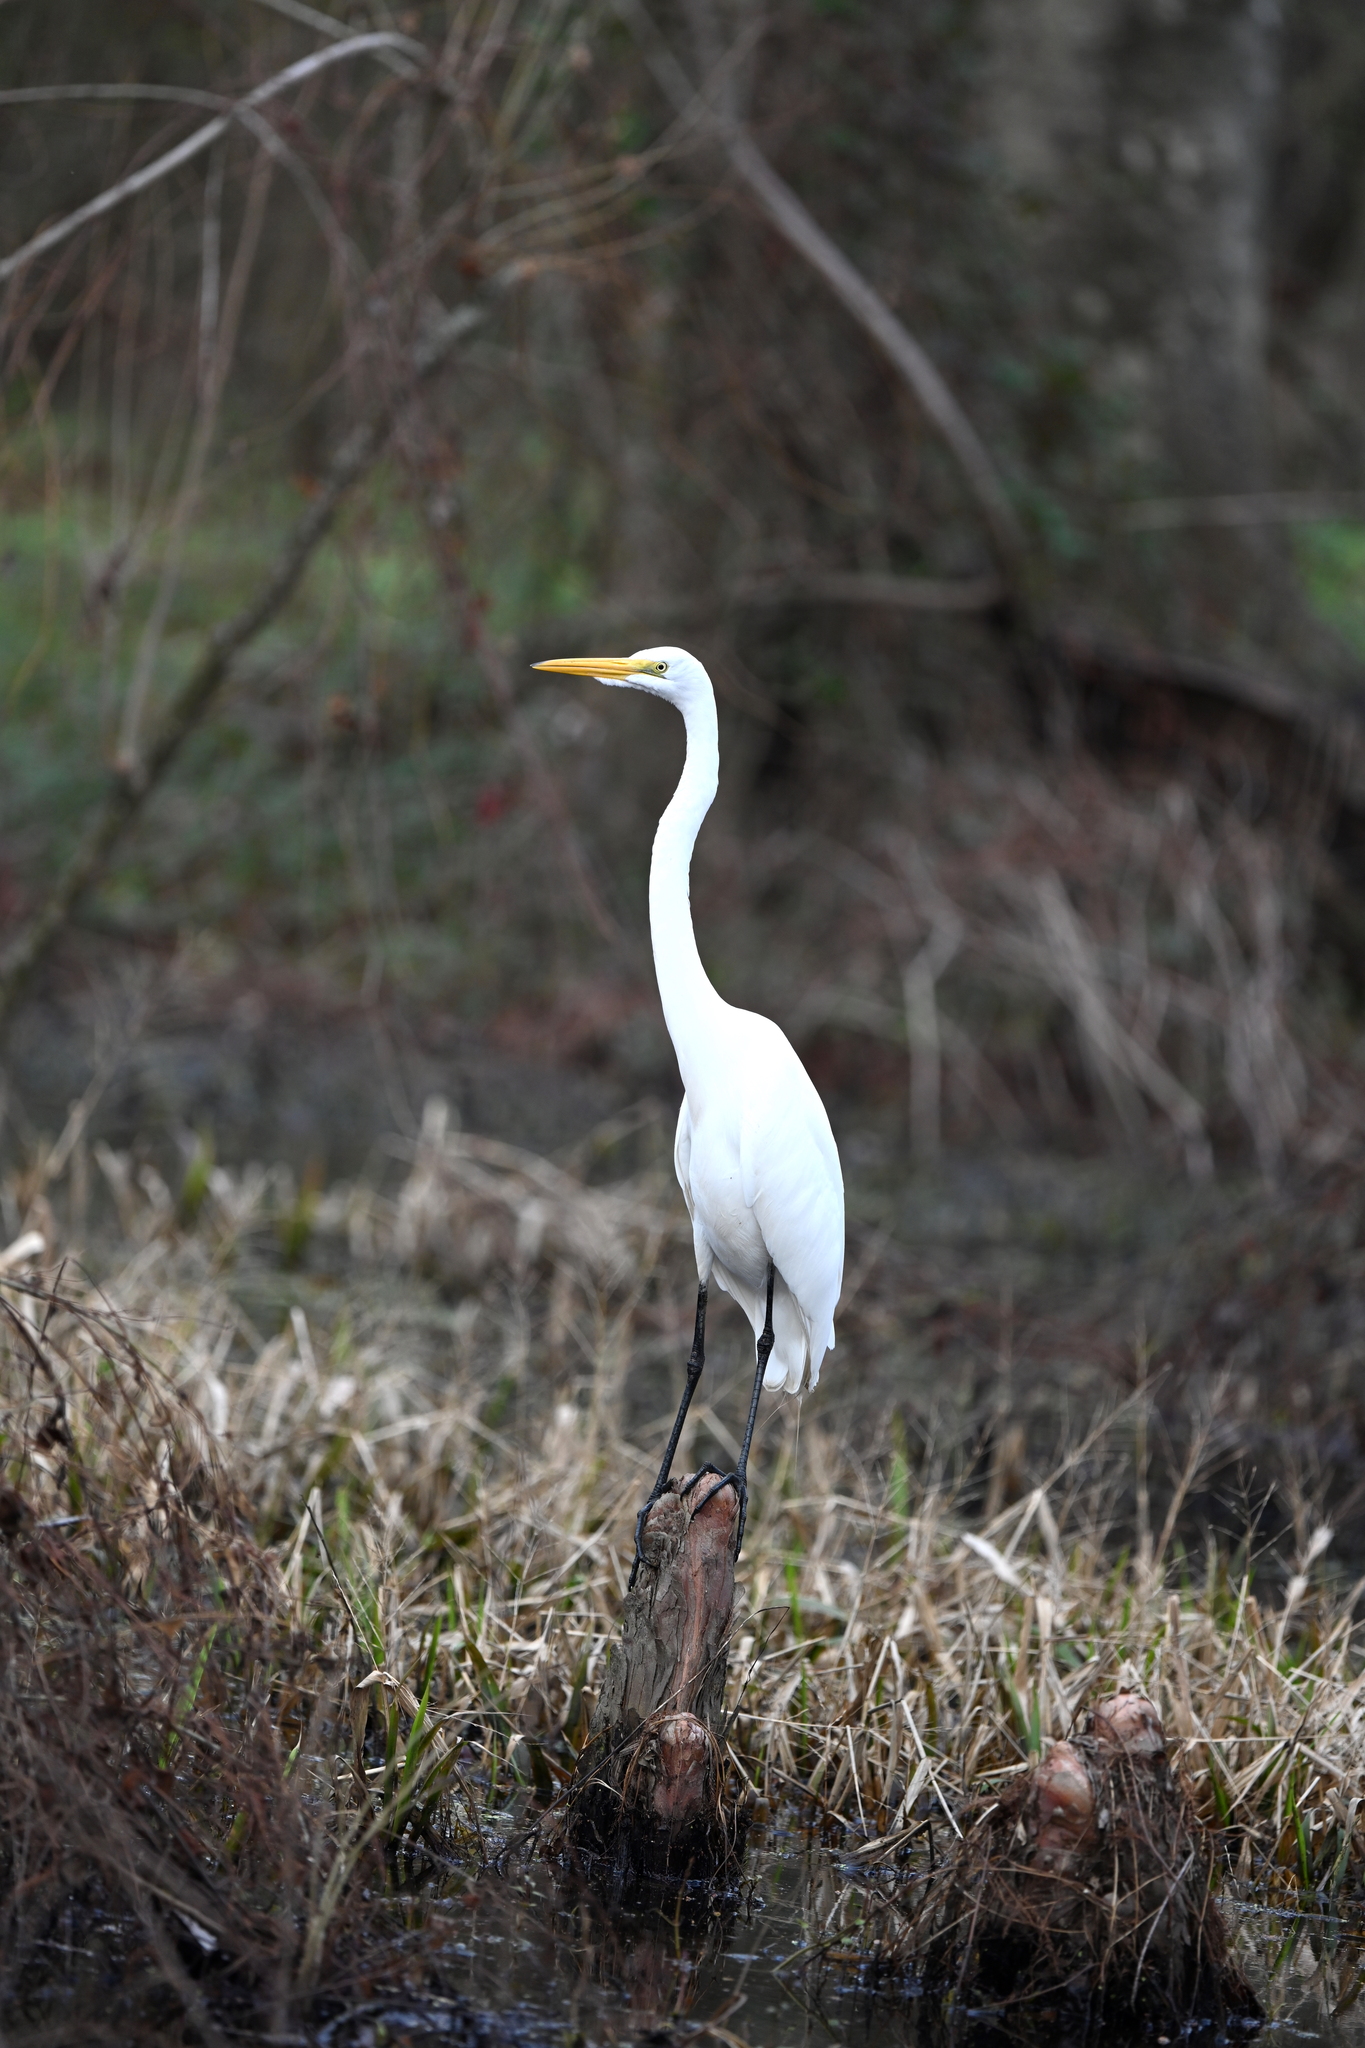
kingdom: Animalia
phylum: Chordata
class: Aves
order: Pelecaniformes
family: Ardeidae
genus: Ardea
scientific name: Ardea alba
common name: Great egret
